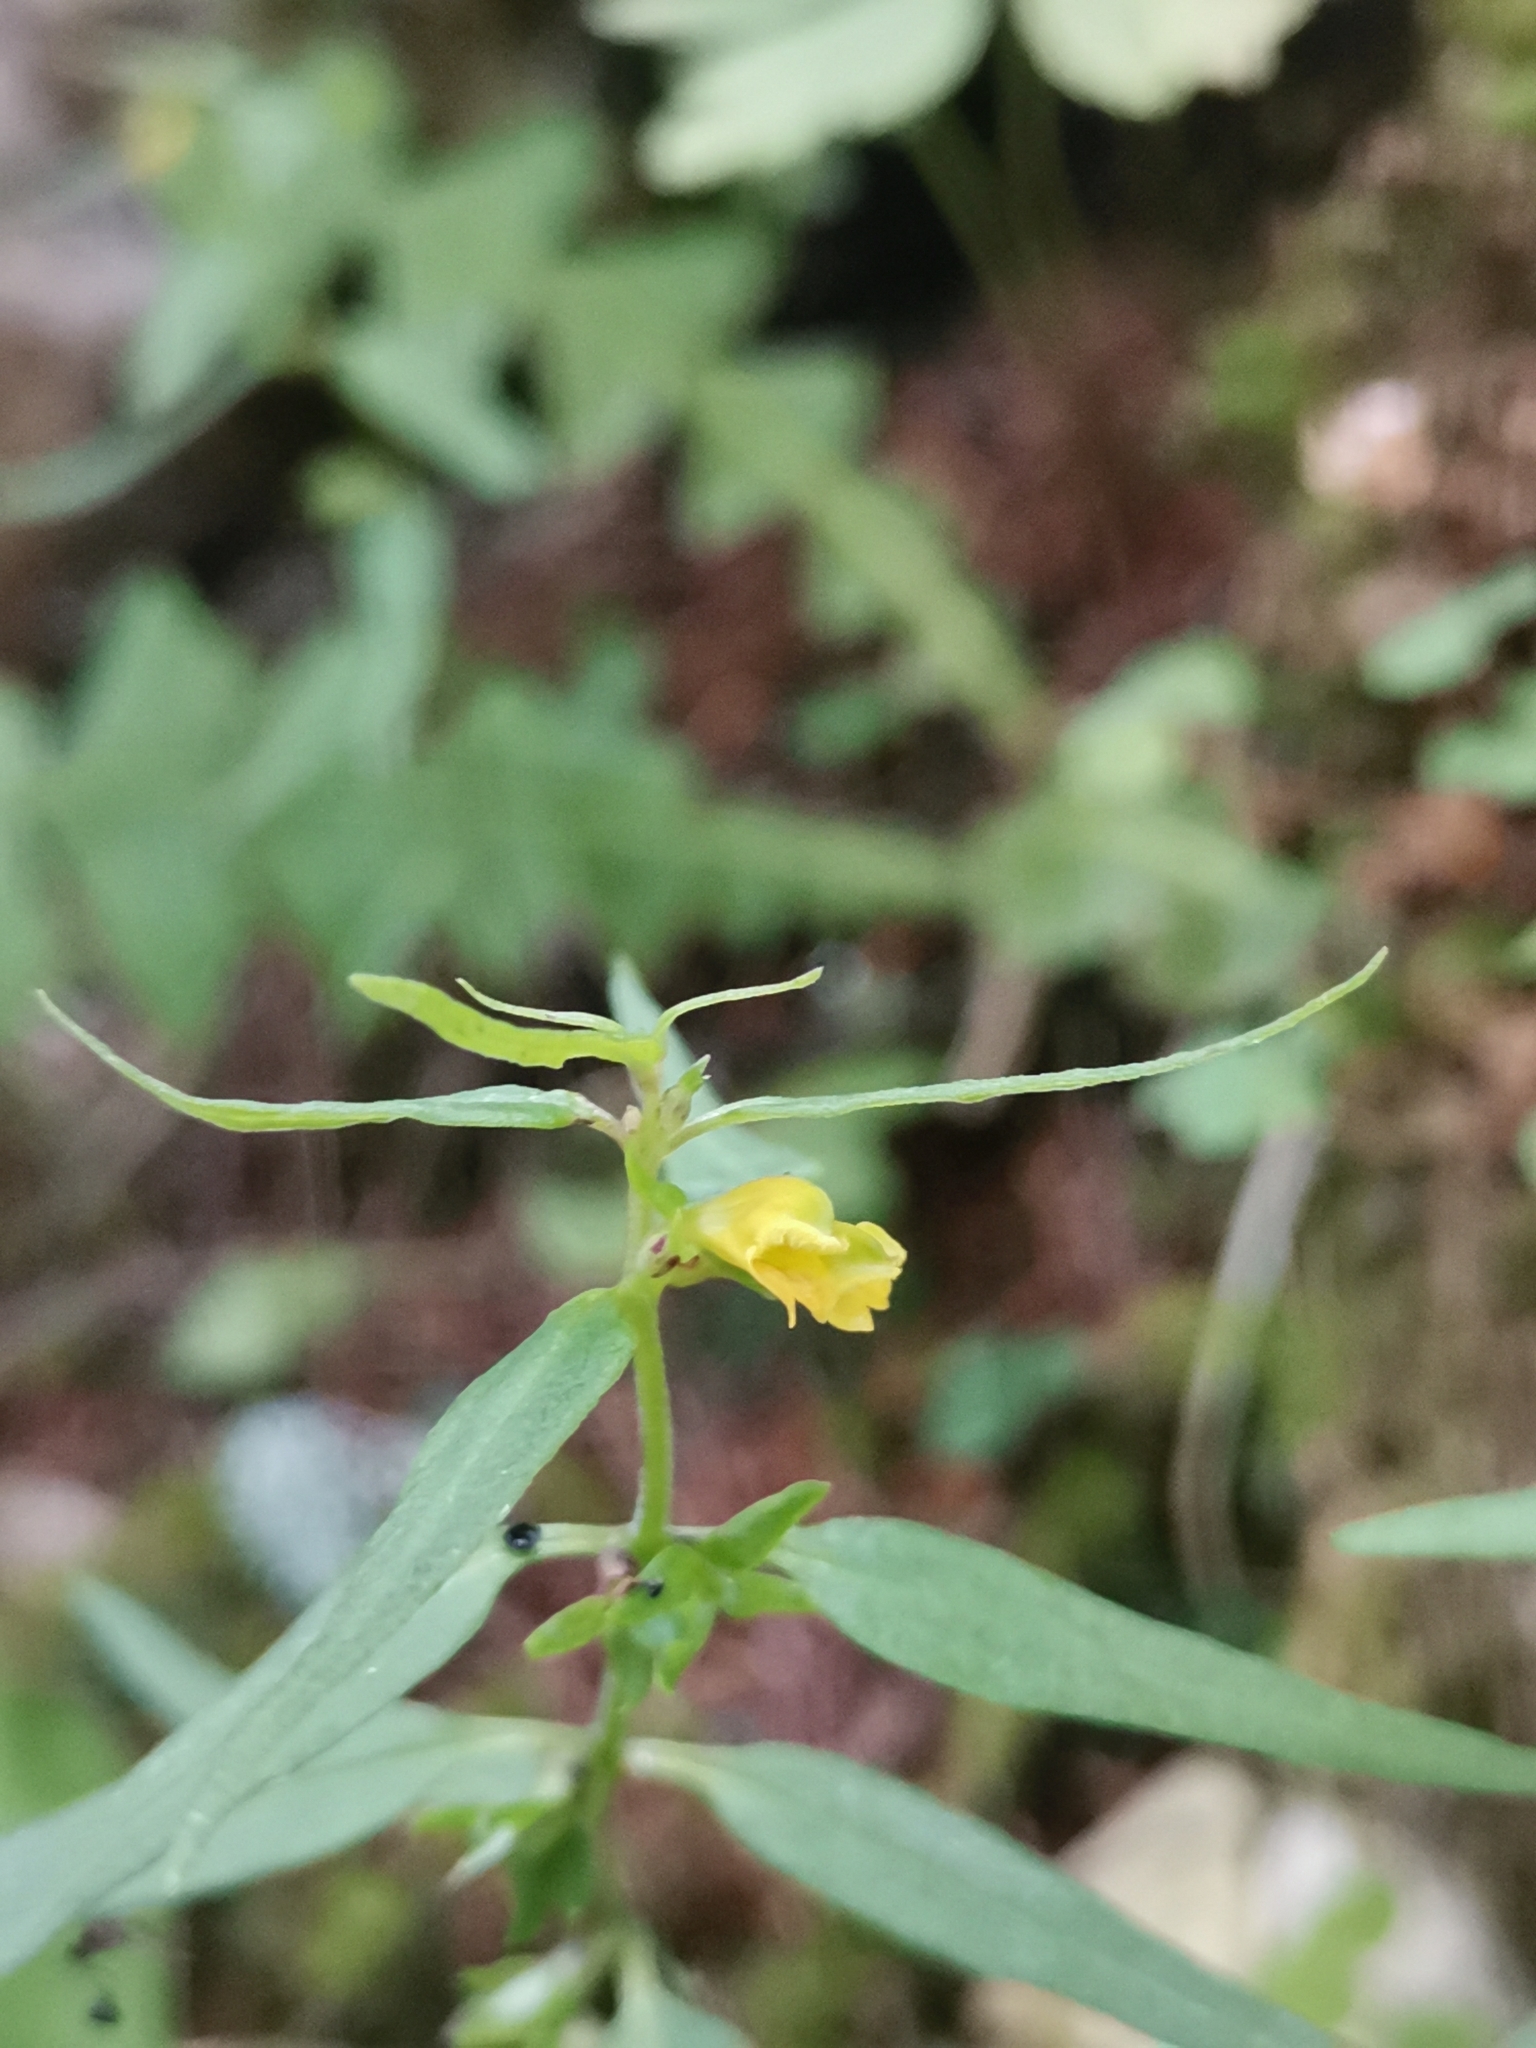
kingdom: Plantae
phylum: Tracheophyta
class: Magnoliopsida
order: Lamiales
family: Orobanchaceae
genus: Melampyrum
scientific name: Melampyrum sylvaticum
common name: Small cow-wheat
